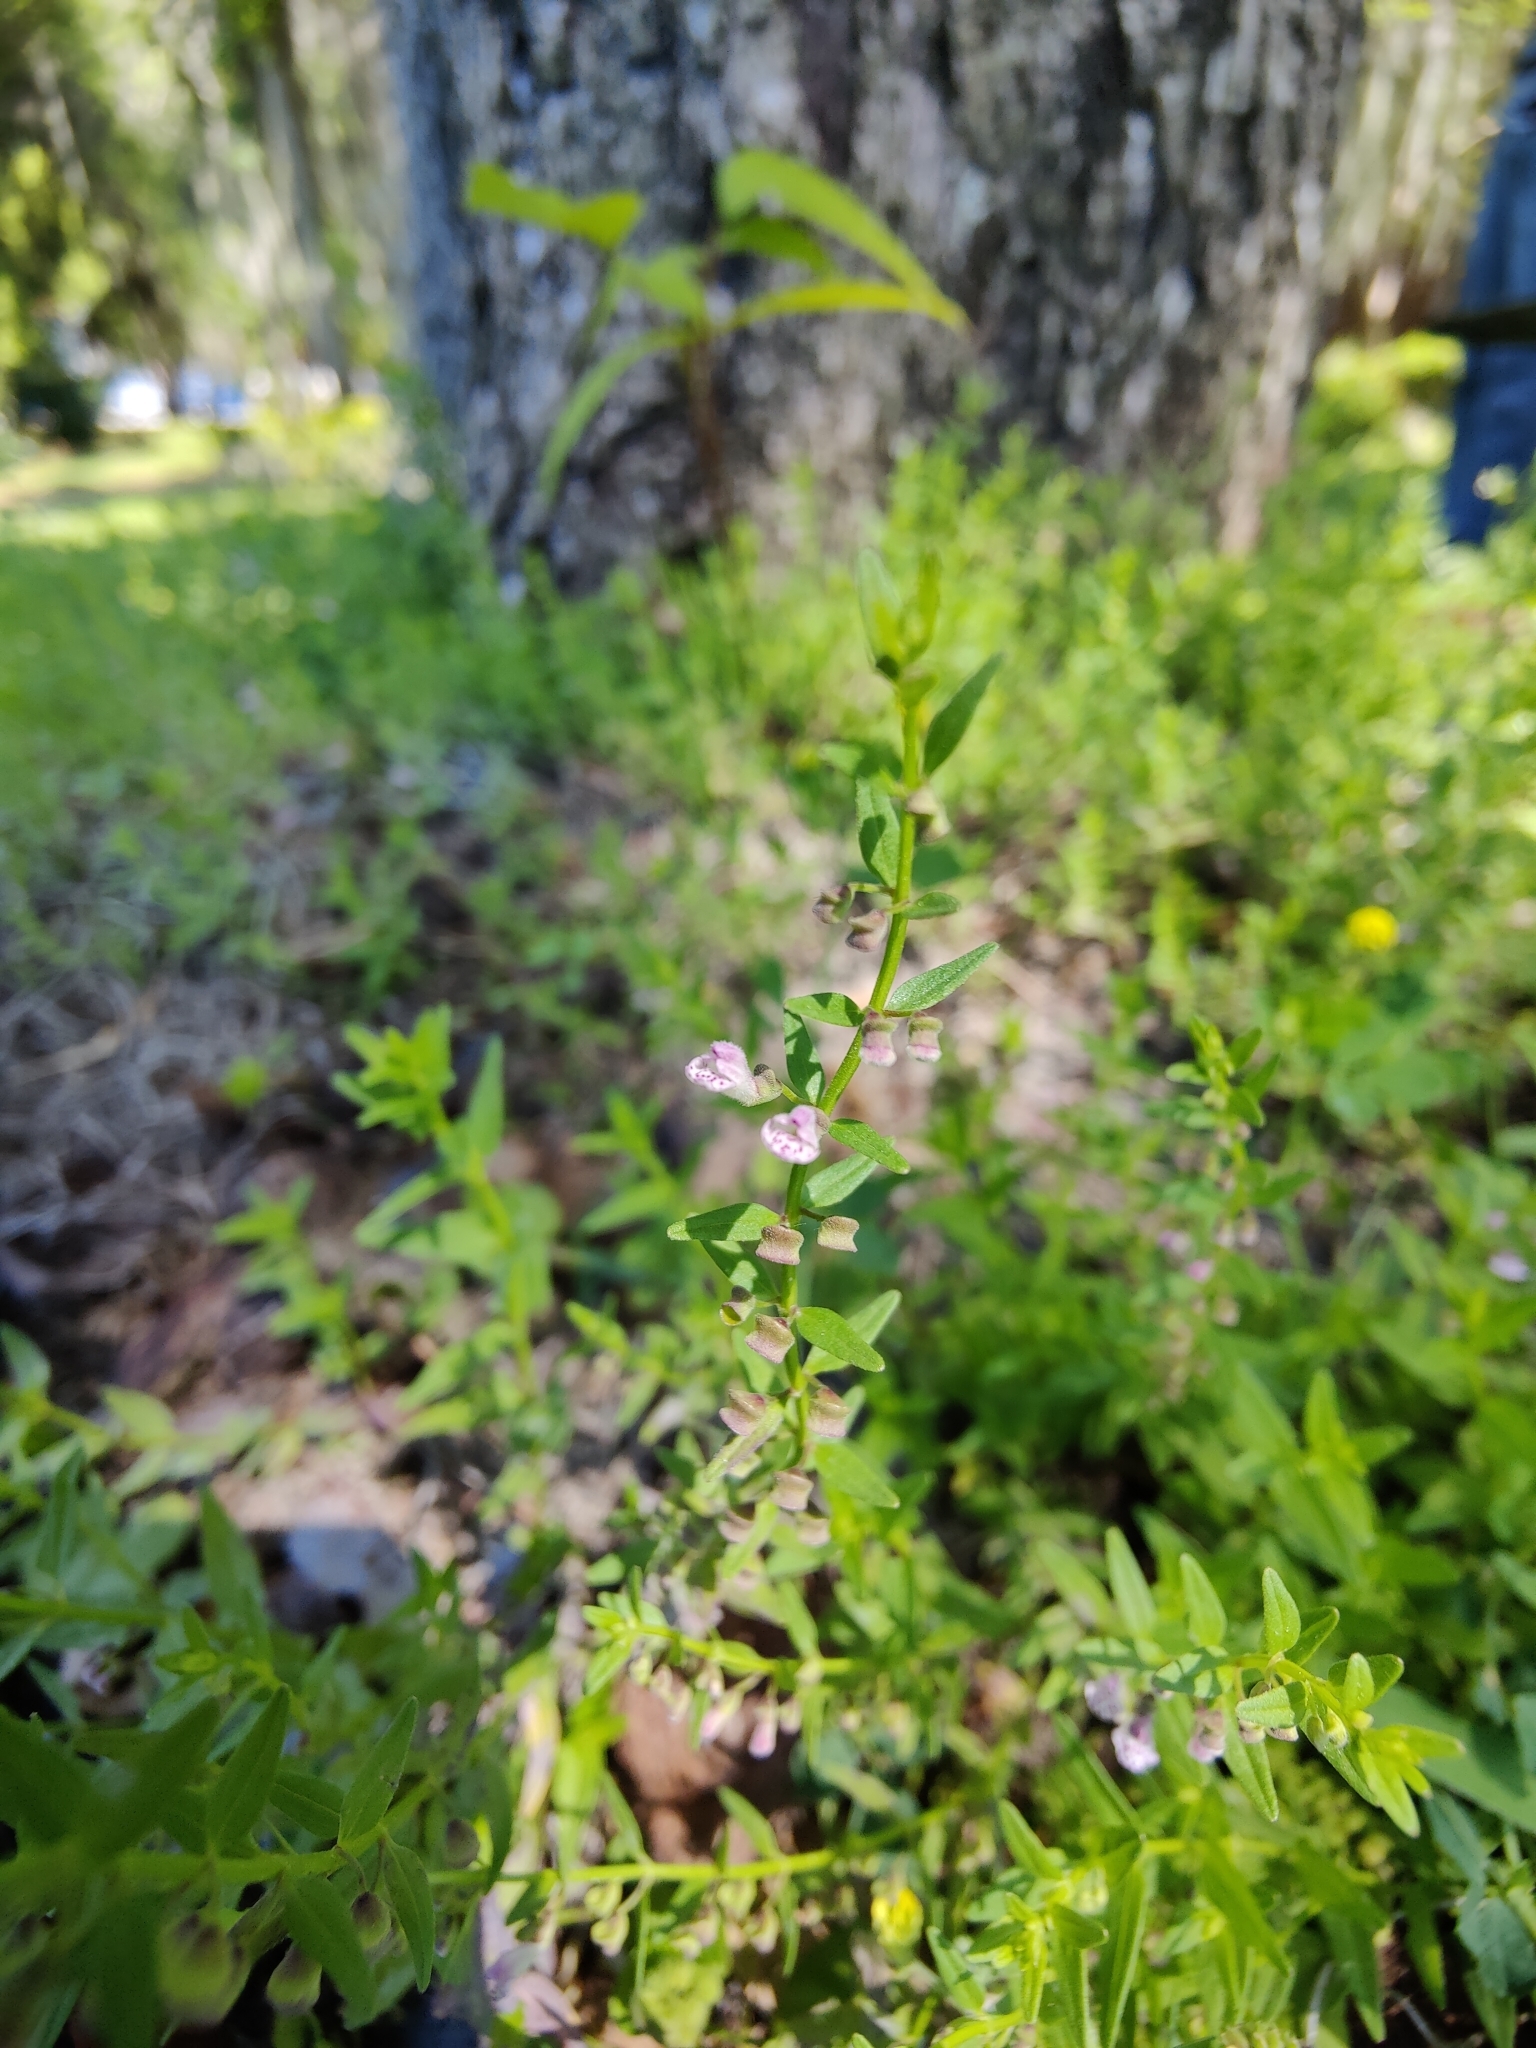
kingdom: Plantae
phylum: Tracheophyta
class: Magnoliopsida
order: Lamiales
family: Lamiaceae
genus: Scutellaria
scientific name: Scutellaria racemosa
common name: South american skullcap
